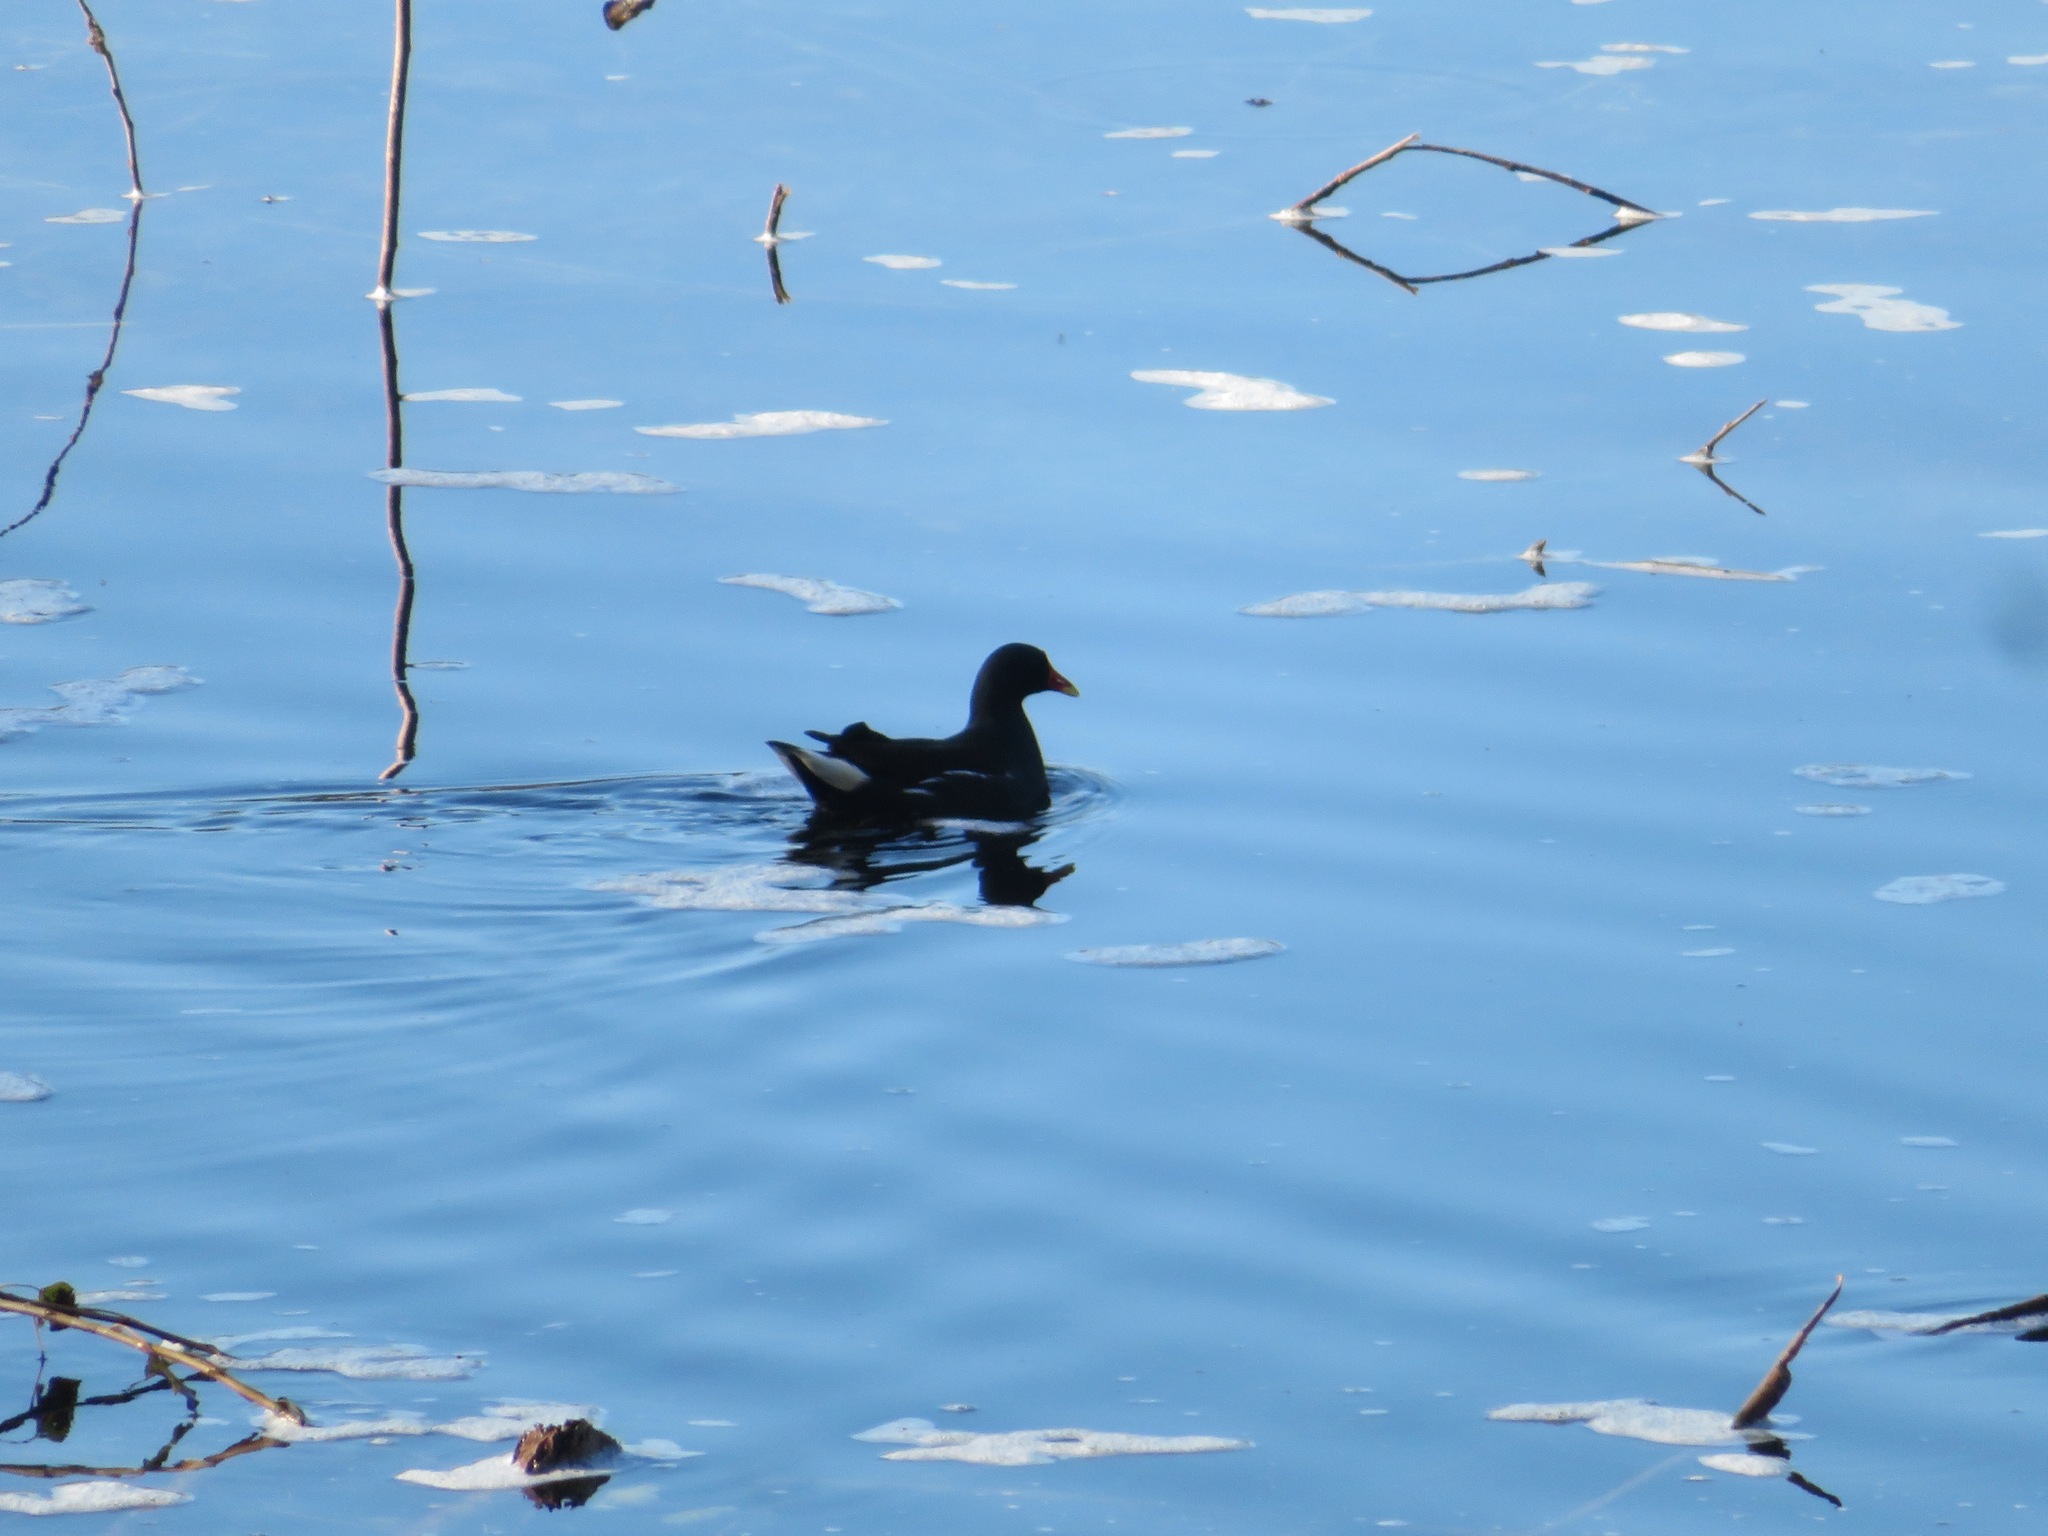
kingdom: Animalia
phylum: Chordata
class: Aves
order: Gruiformes
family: Rallidae
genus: Gallinula
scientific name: Gallinula chloropus
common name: Common moorhen
